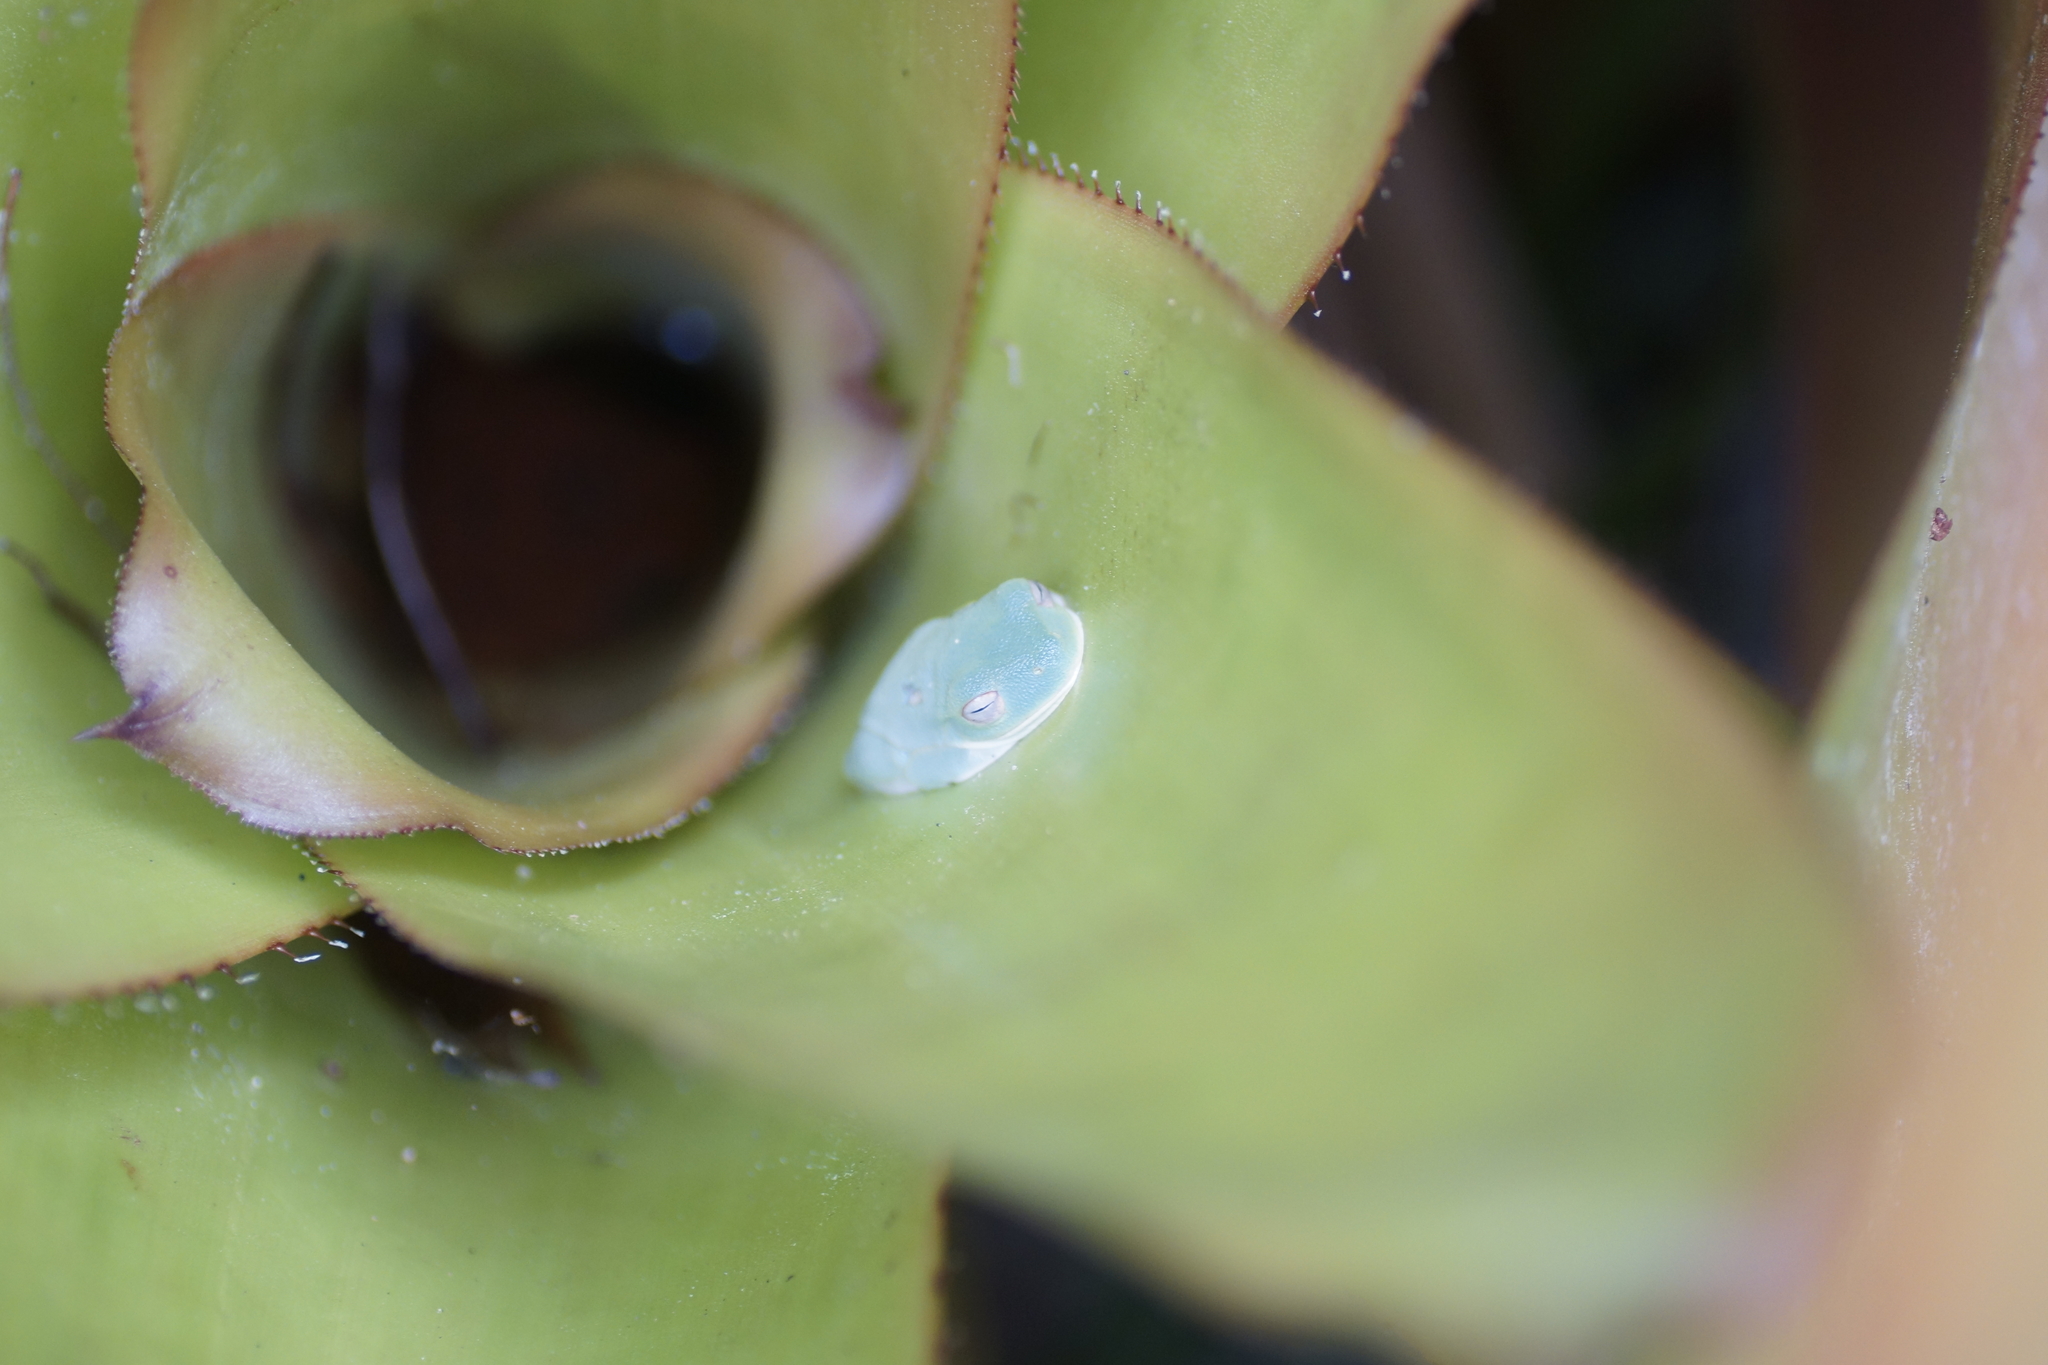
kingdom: Animalia
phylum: Chordata
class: Amphibia
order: Anura
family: Pelodryadidae
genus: Ranoidea
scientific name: Ranoidea gracilenta
